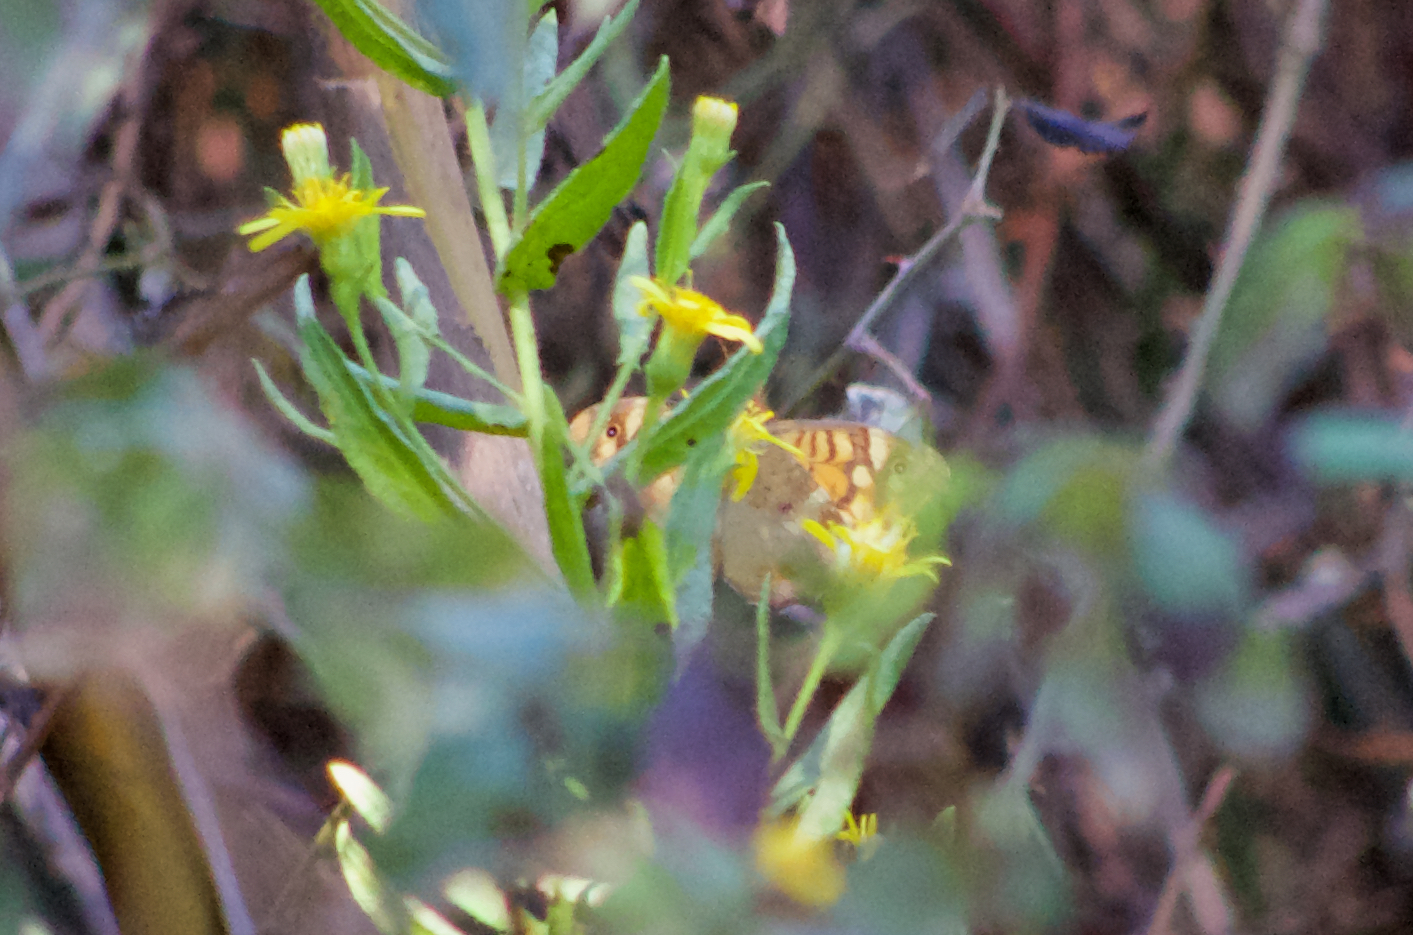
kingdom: Animalia
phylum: Arthropoda
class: Insecta
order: Lepidoptera
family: Nymphalidae
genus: Pararge
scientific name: Pararge aegeria
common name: Speckled wood
